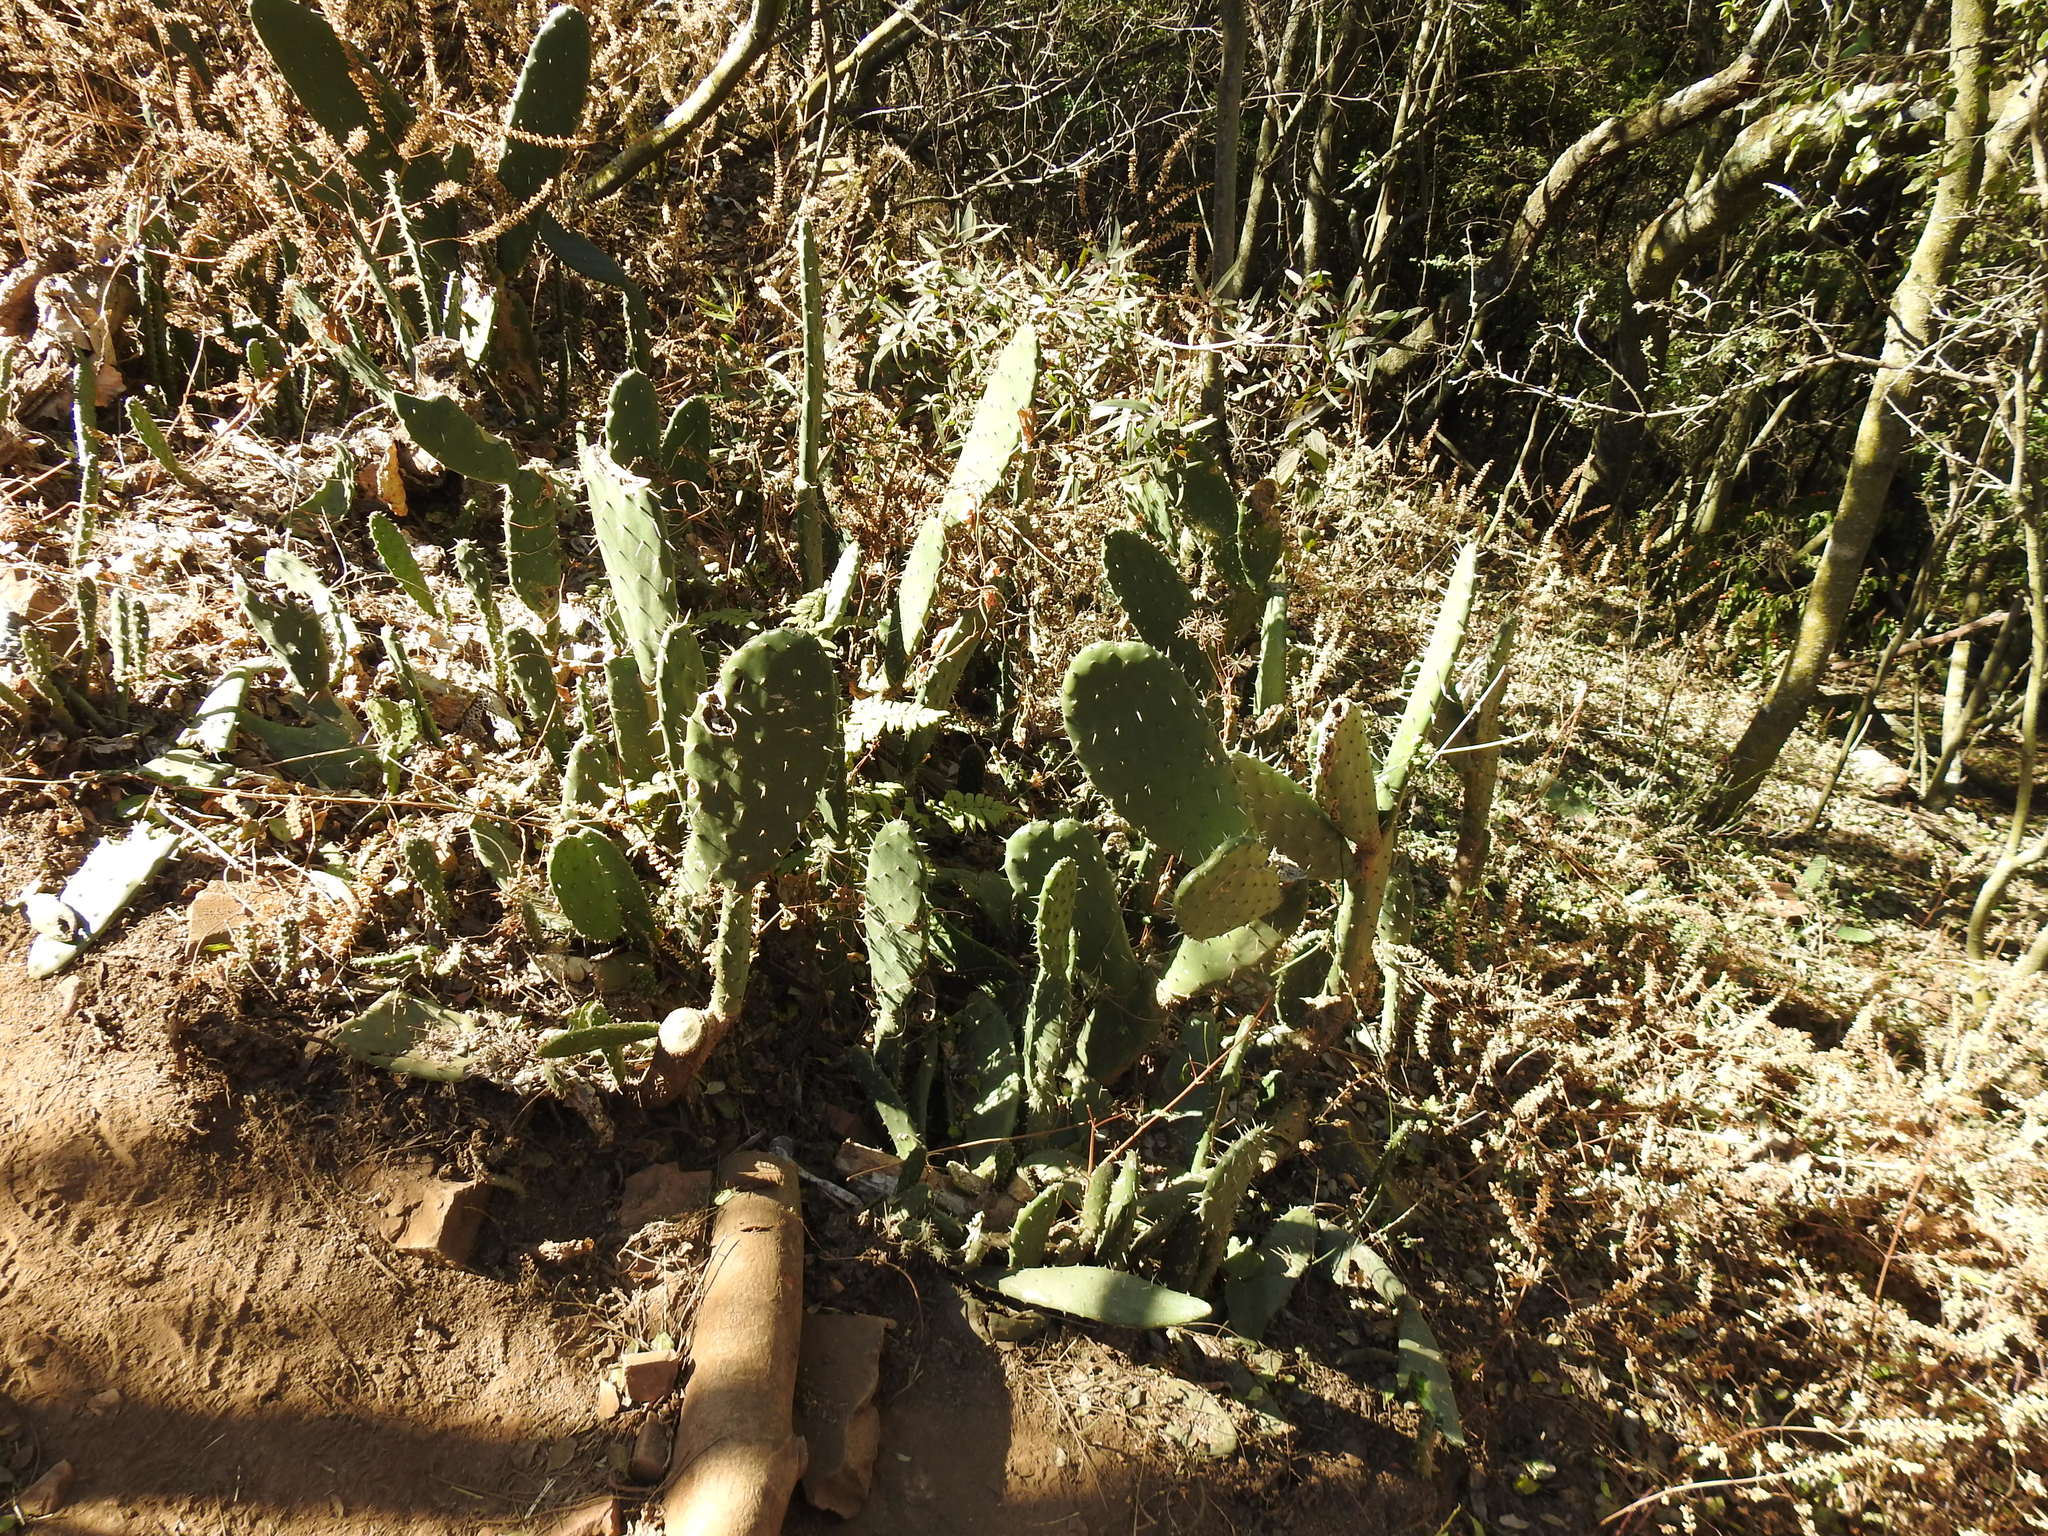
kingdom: Plantae
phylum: Tracheophyta
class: Magnoliopsida
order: Caryophyllales
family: Cactaceae
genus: Opuntia
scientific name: Opuntia tomentosa
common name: Woollyjoint pricklypear
